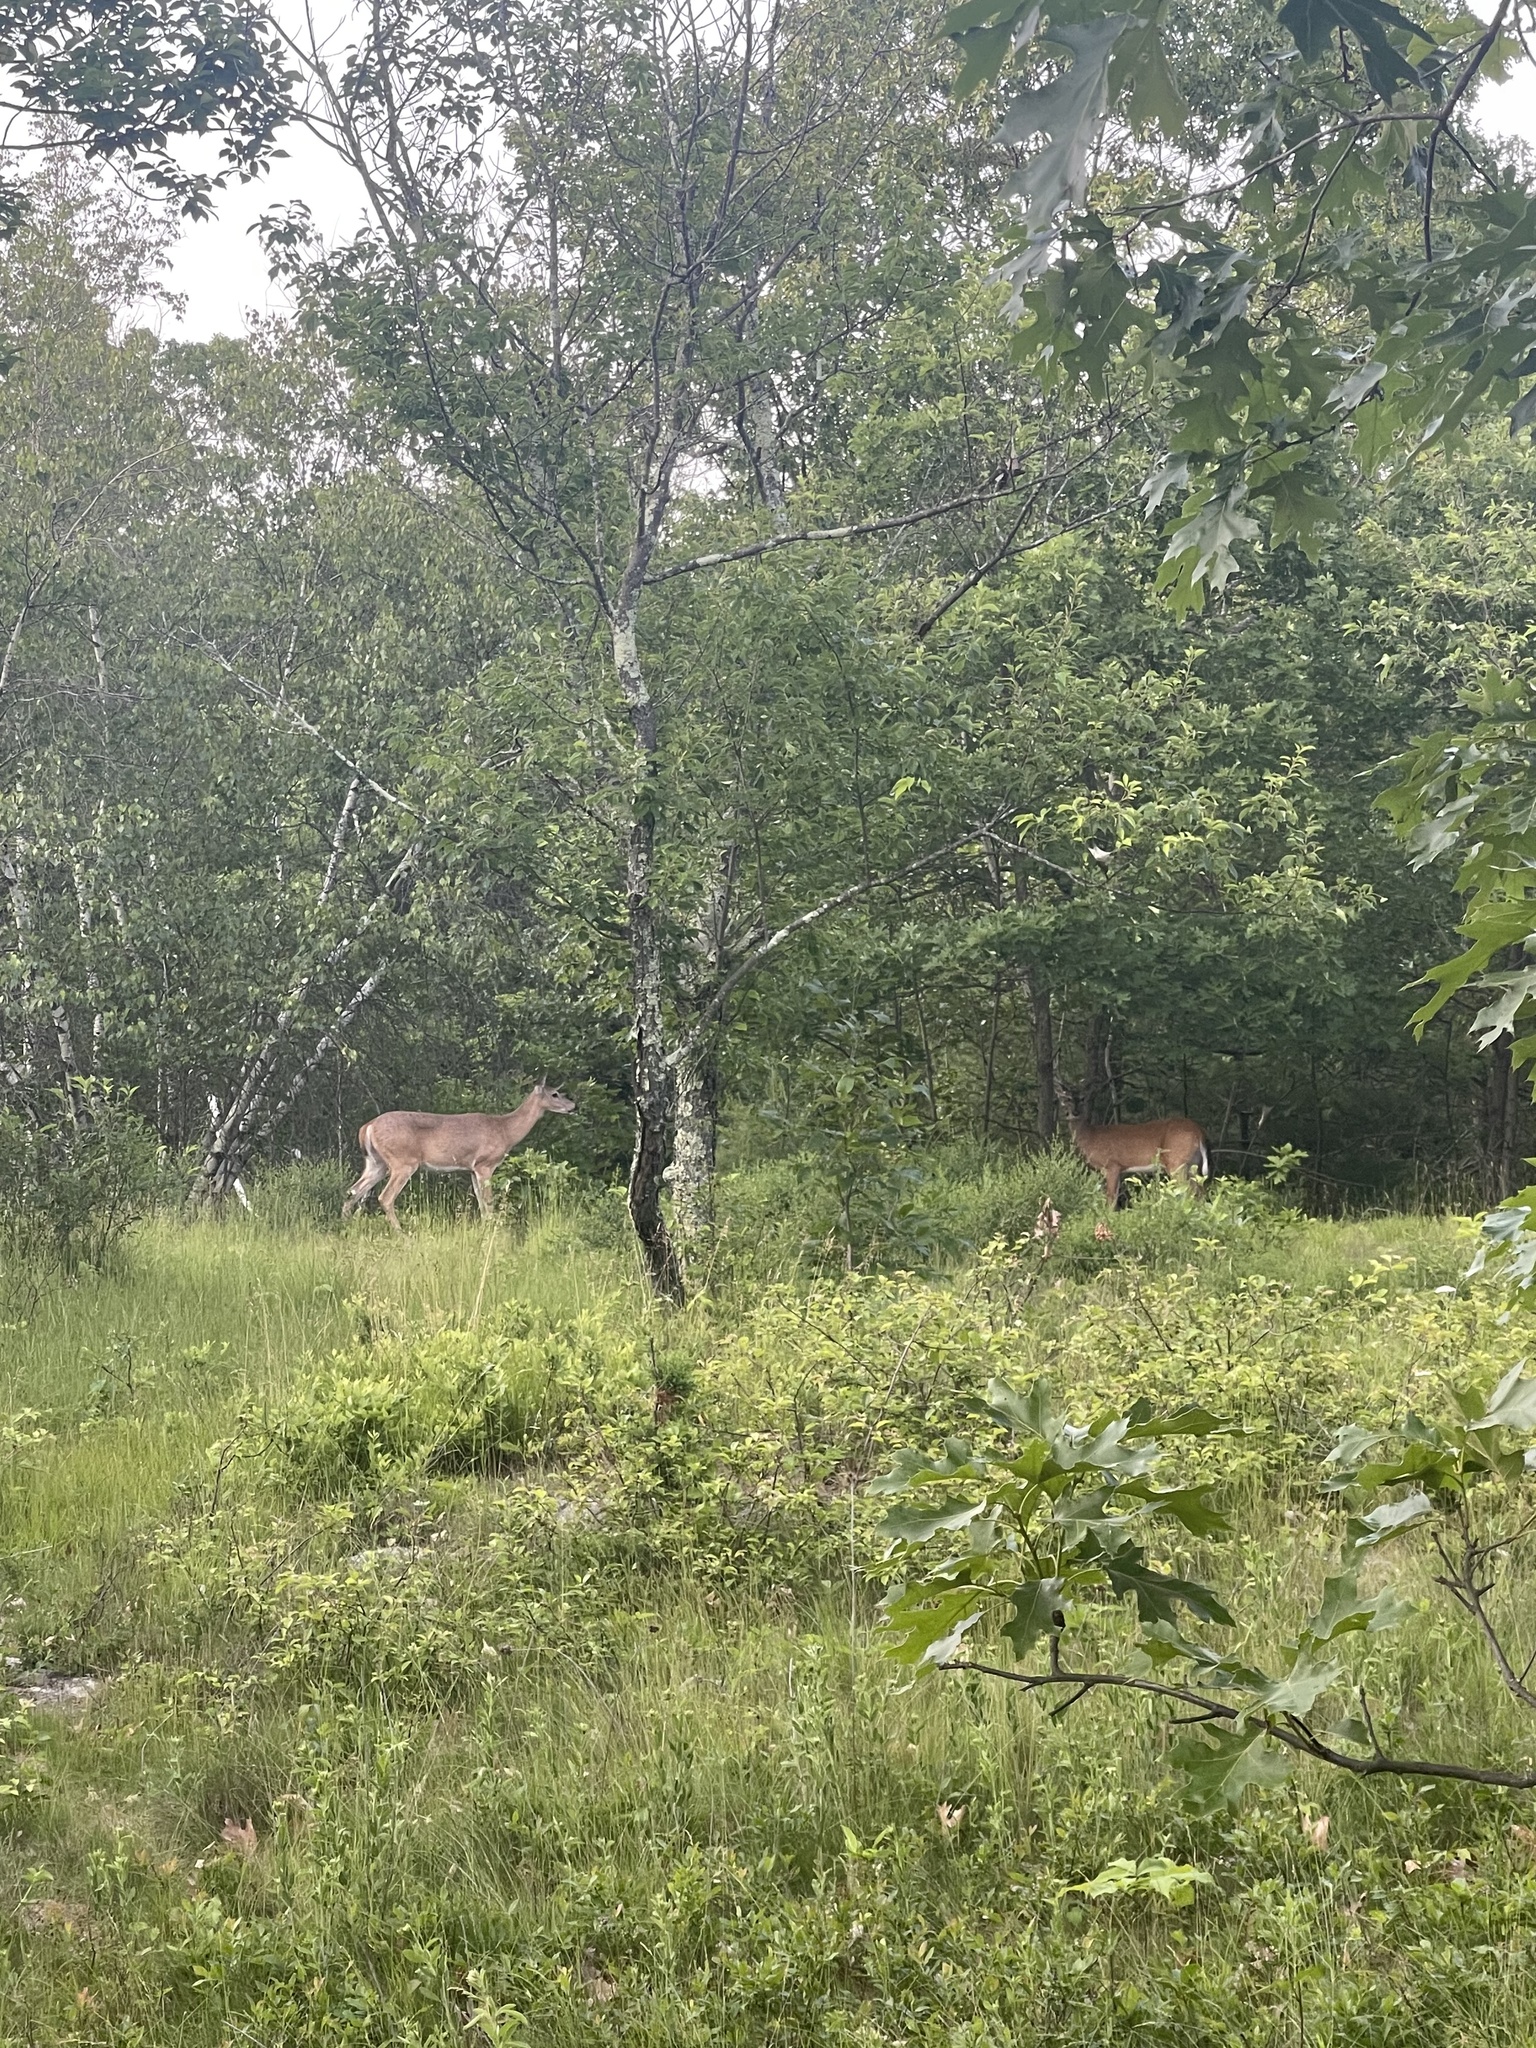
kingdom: Animalia
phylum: Chordata
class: Mammalia
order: Artiodactyla
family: Cervidae
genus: Odocoileus
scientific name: Odocoileus virginianus
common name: White-tailed deer
